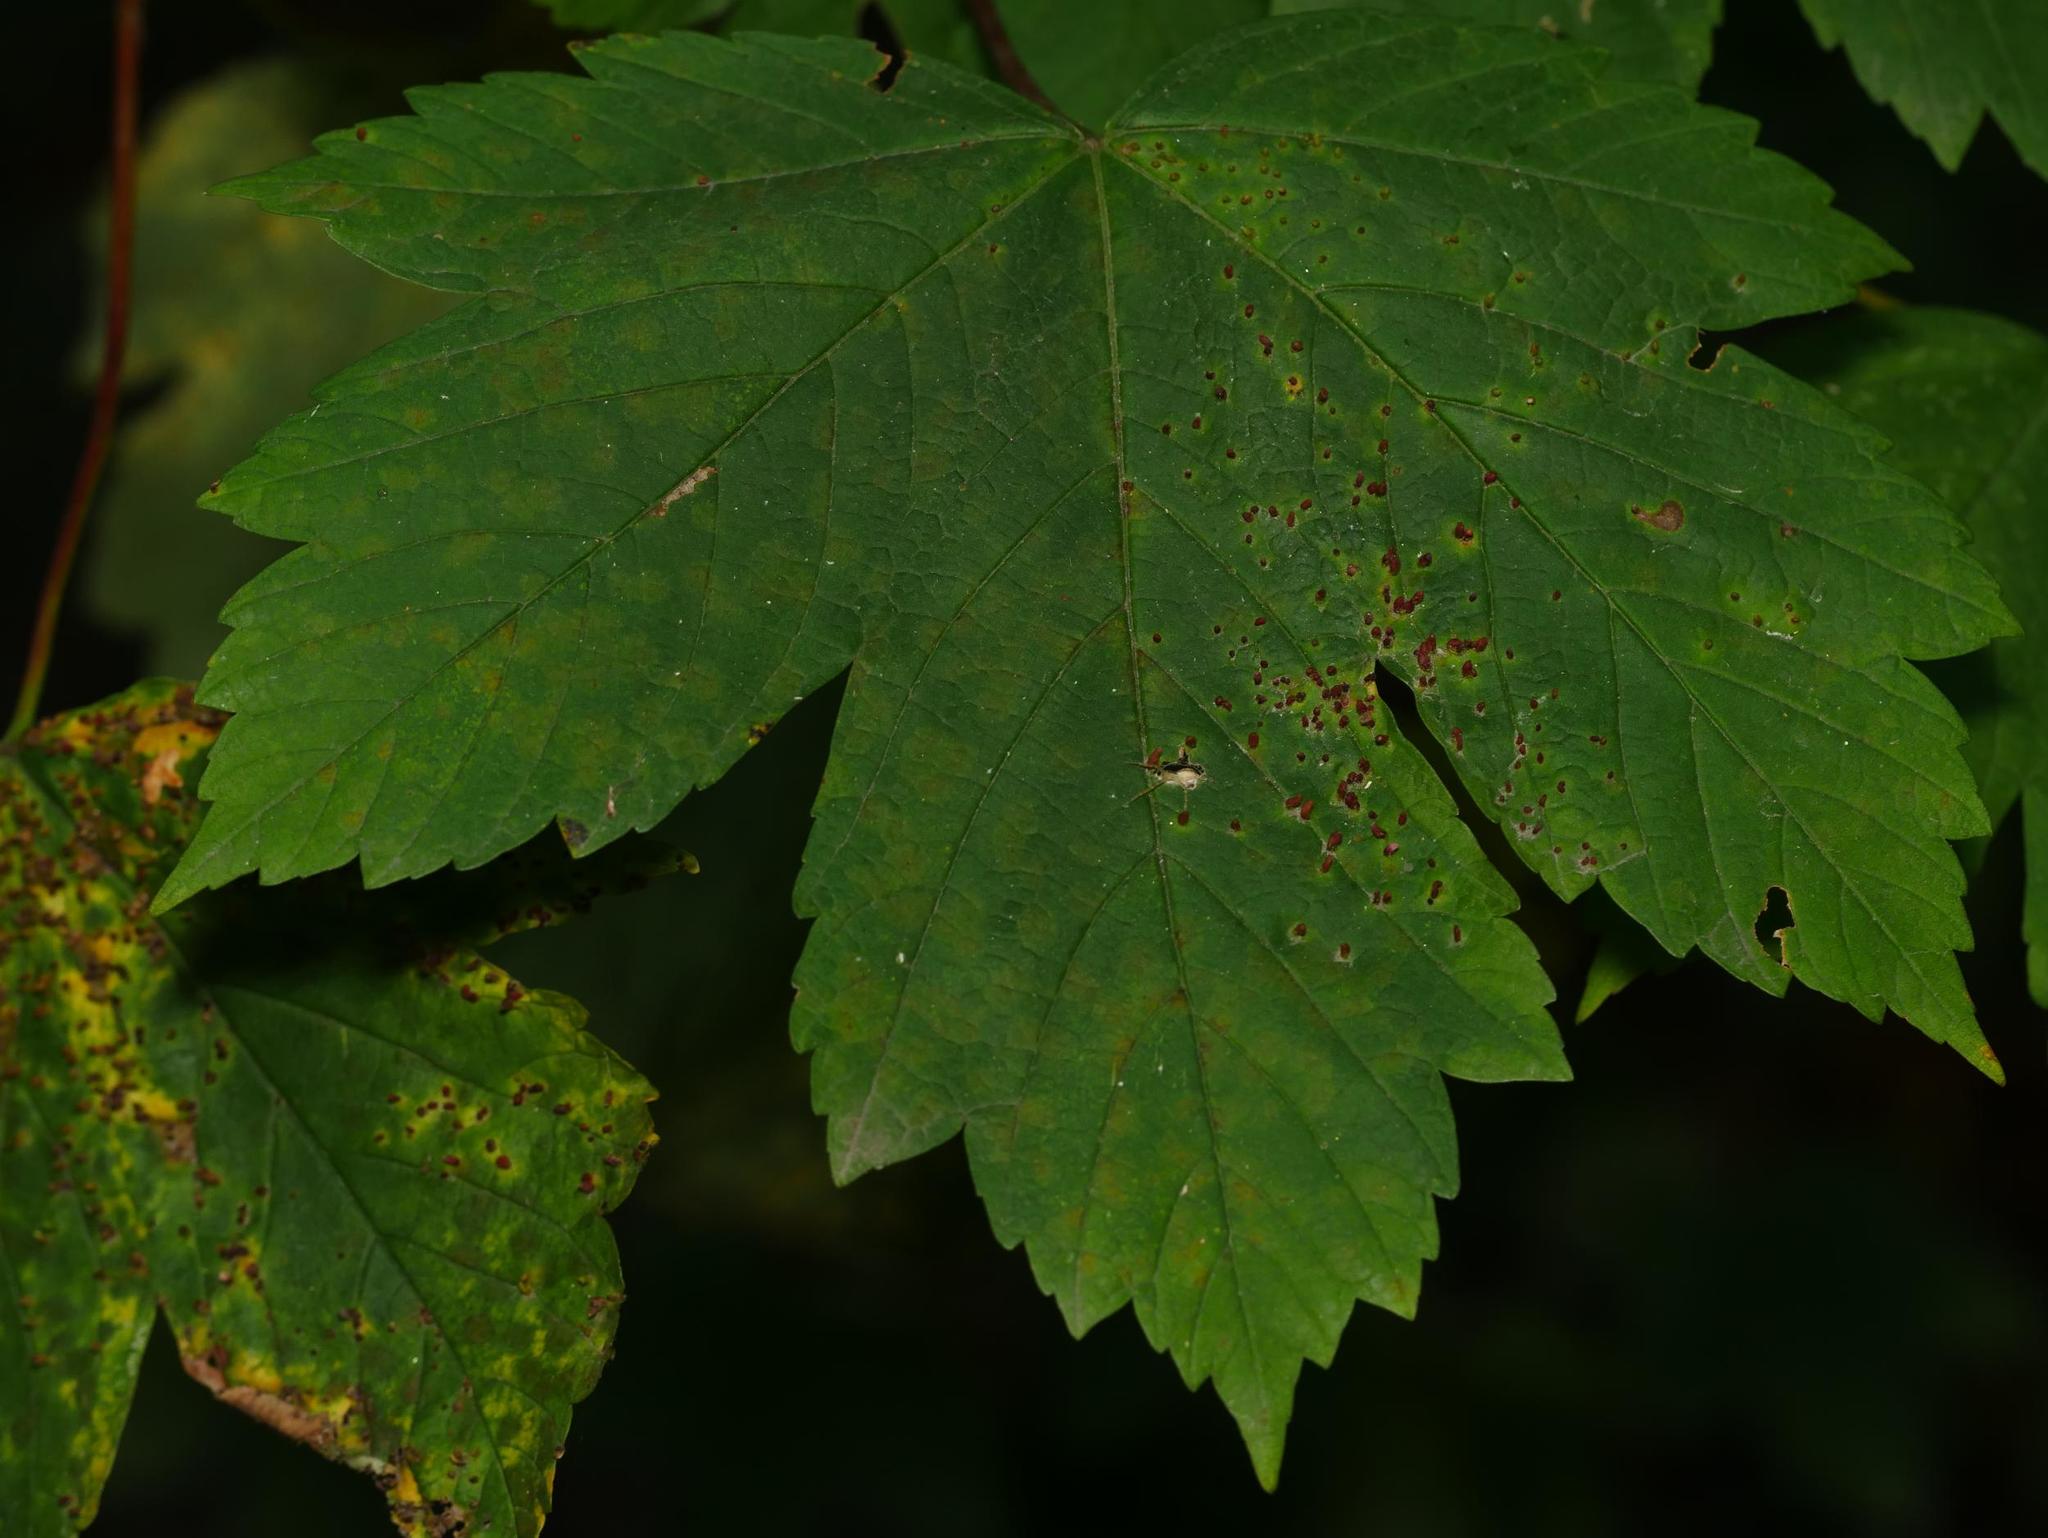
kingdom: Plantae
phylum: Tracheophyta
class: Magnoliopsida
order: Sapindales
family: Sapindaceae
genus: Acer
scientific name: Acer pseudoplatanus
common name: Sycamore
